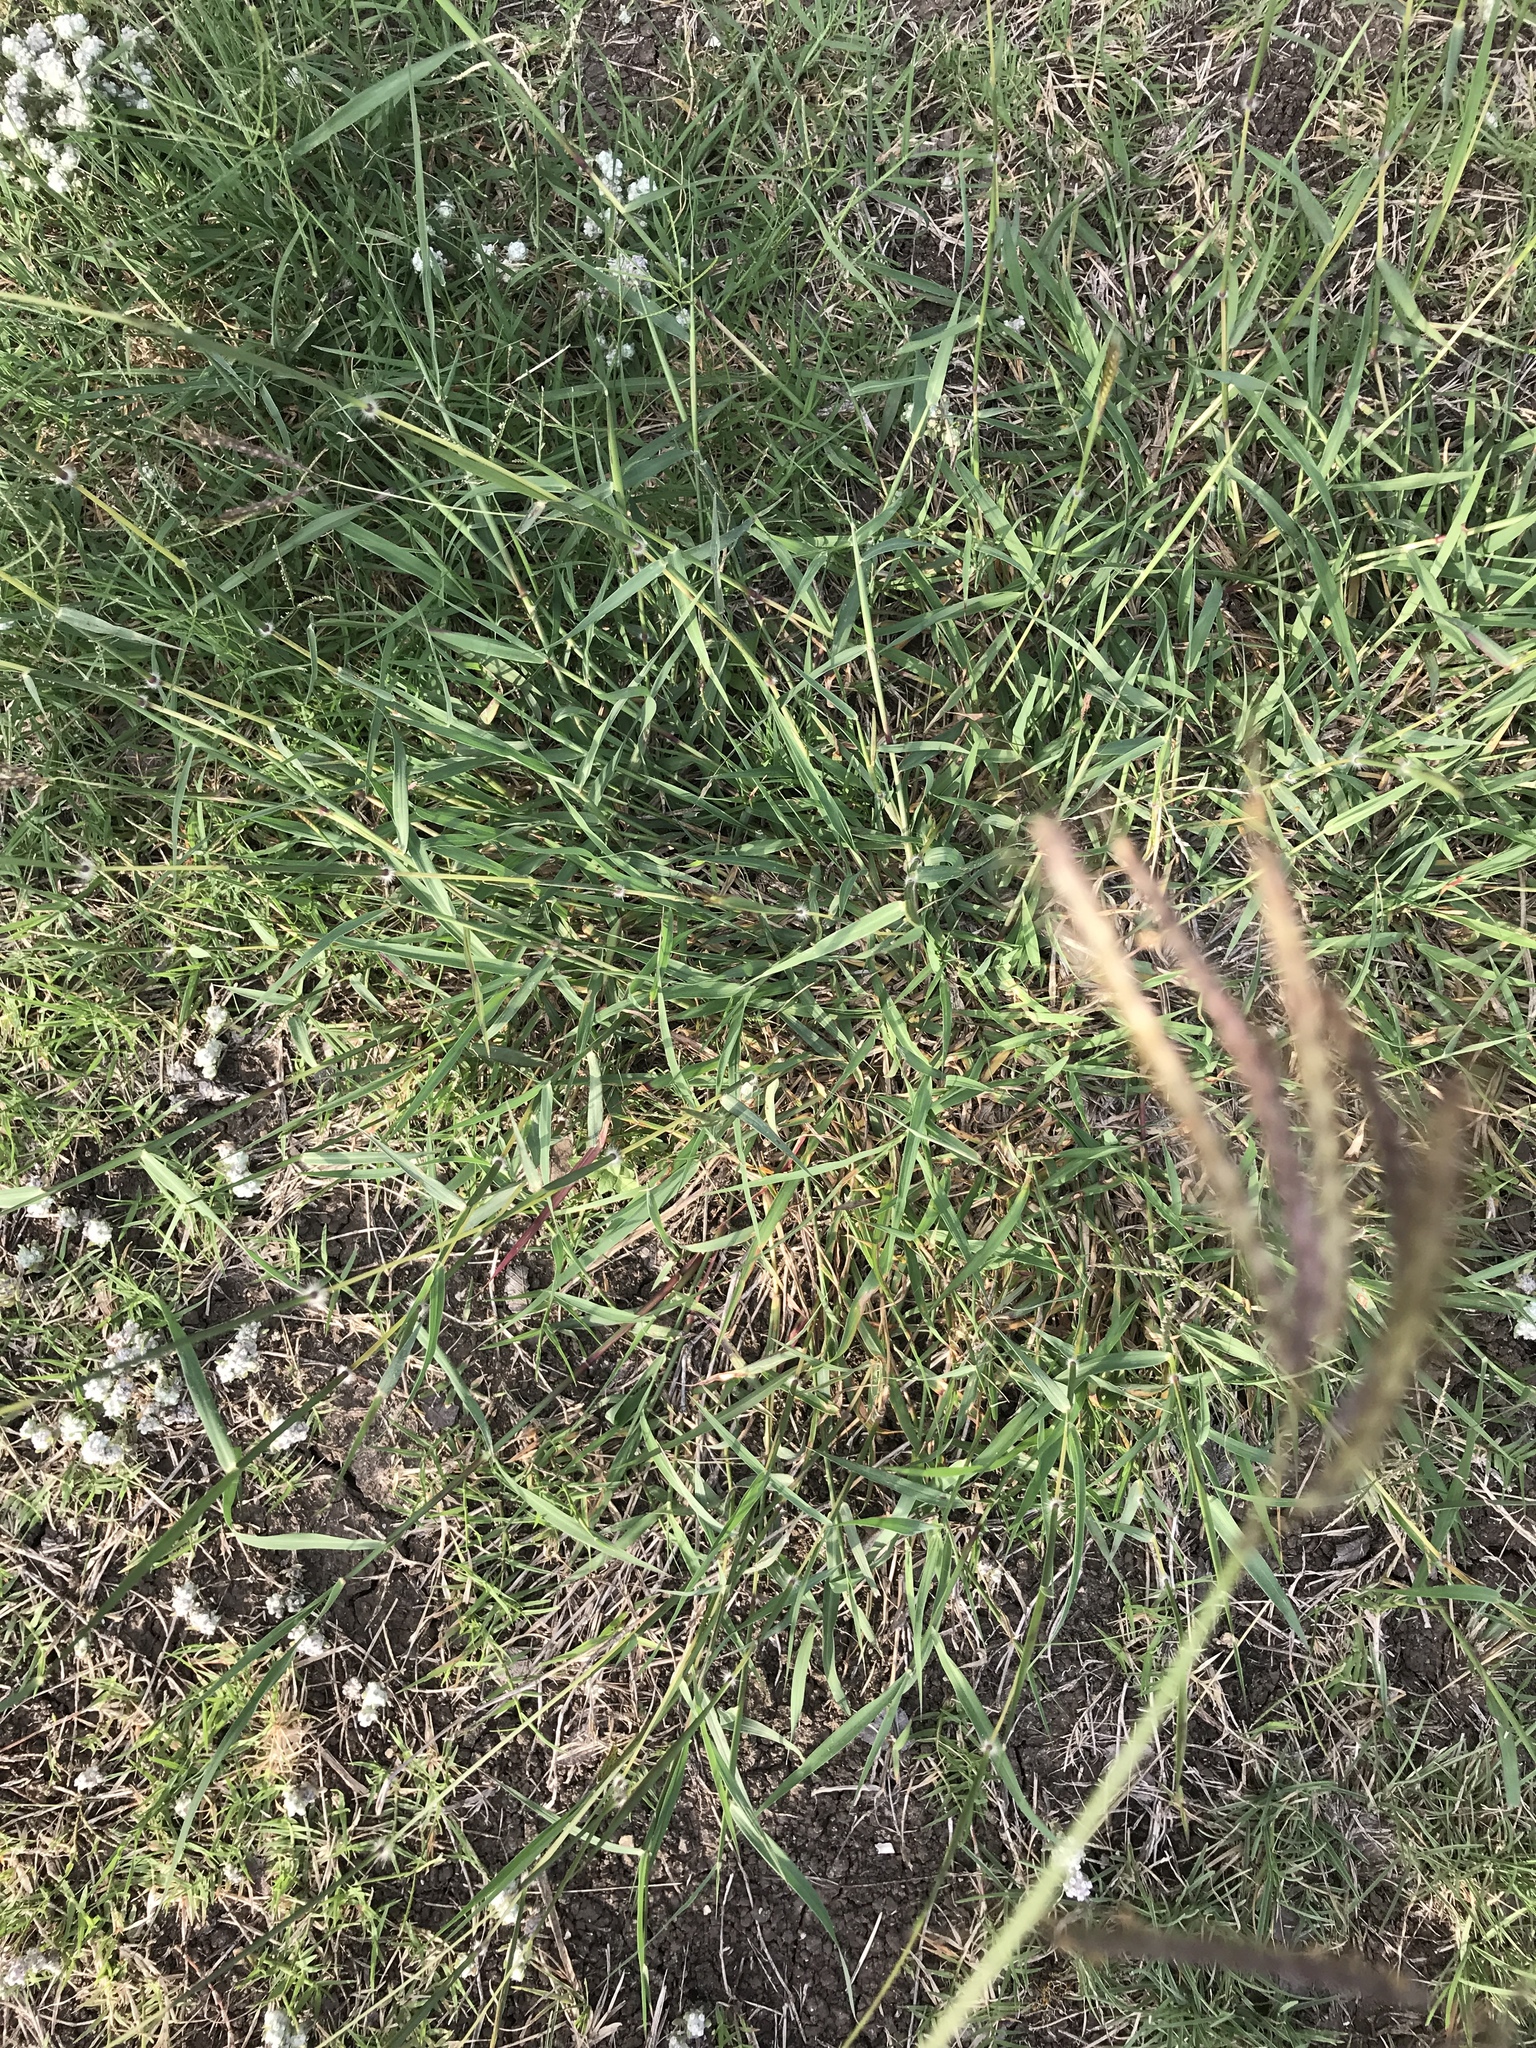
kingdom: Plantae
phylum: Tracheophyta
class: Liliopsida
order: Poales
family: Poaceae
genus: Dichanthium
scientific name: Dichanthium annulatum
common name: Kleberg's bluestem
